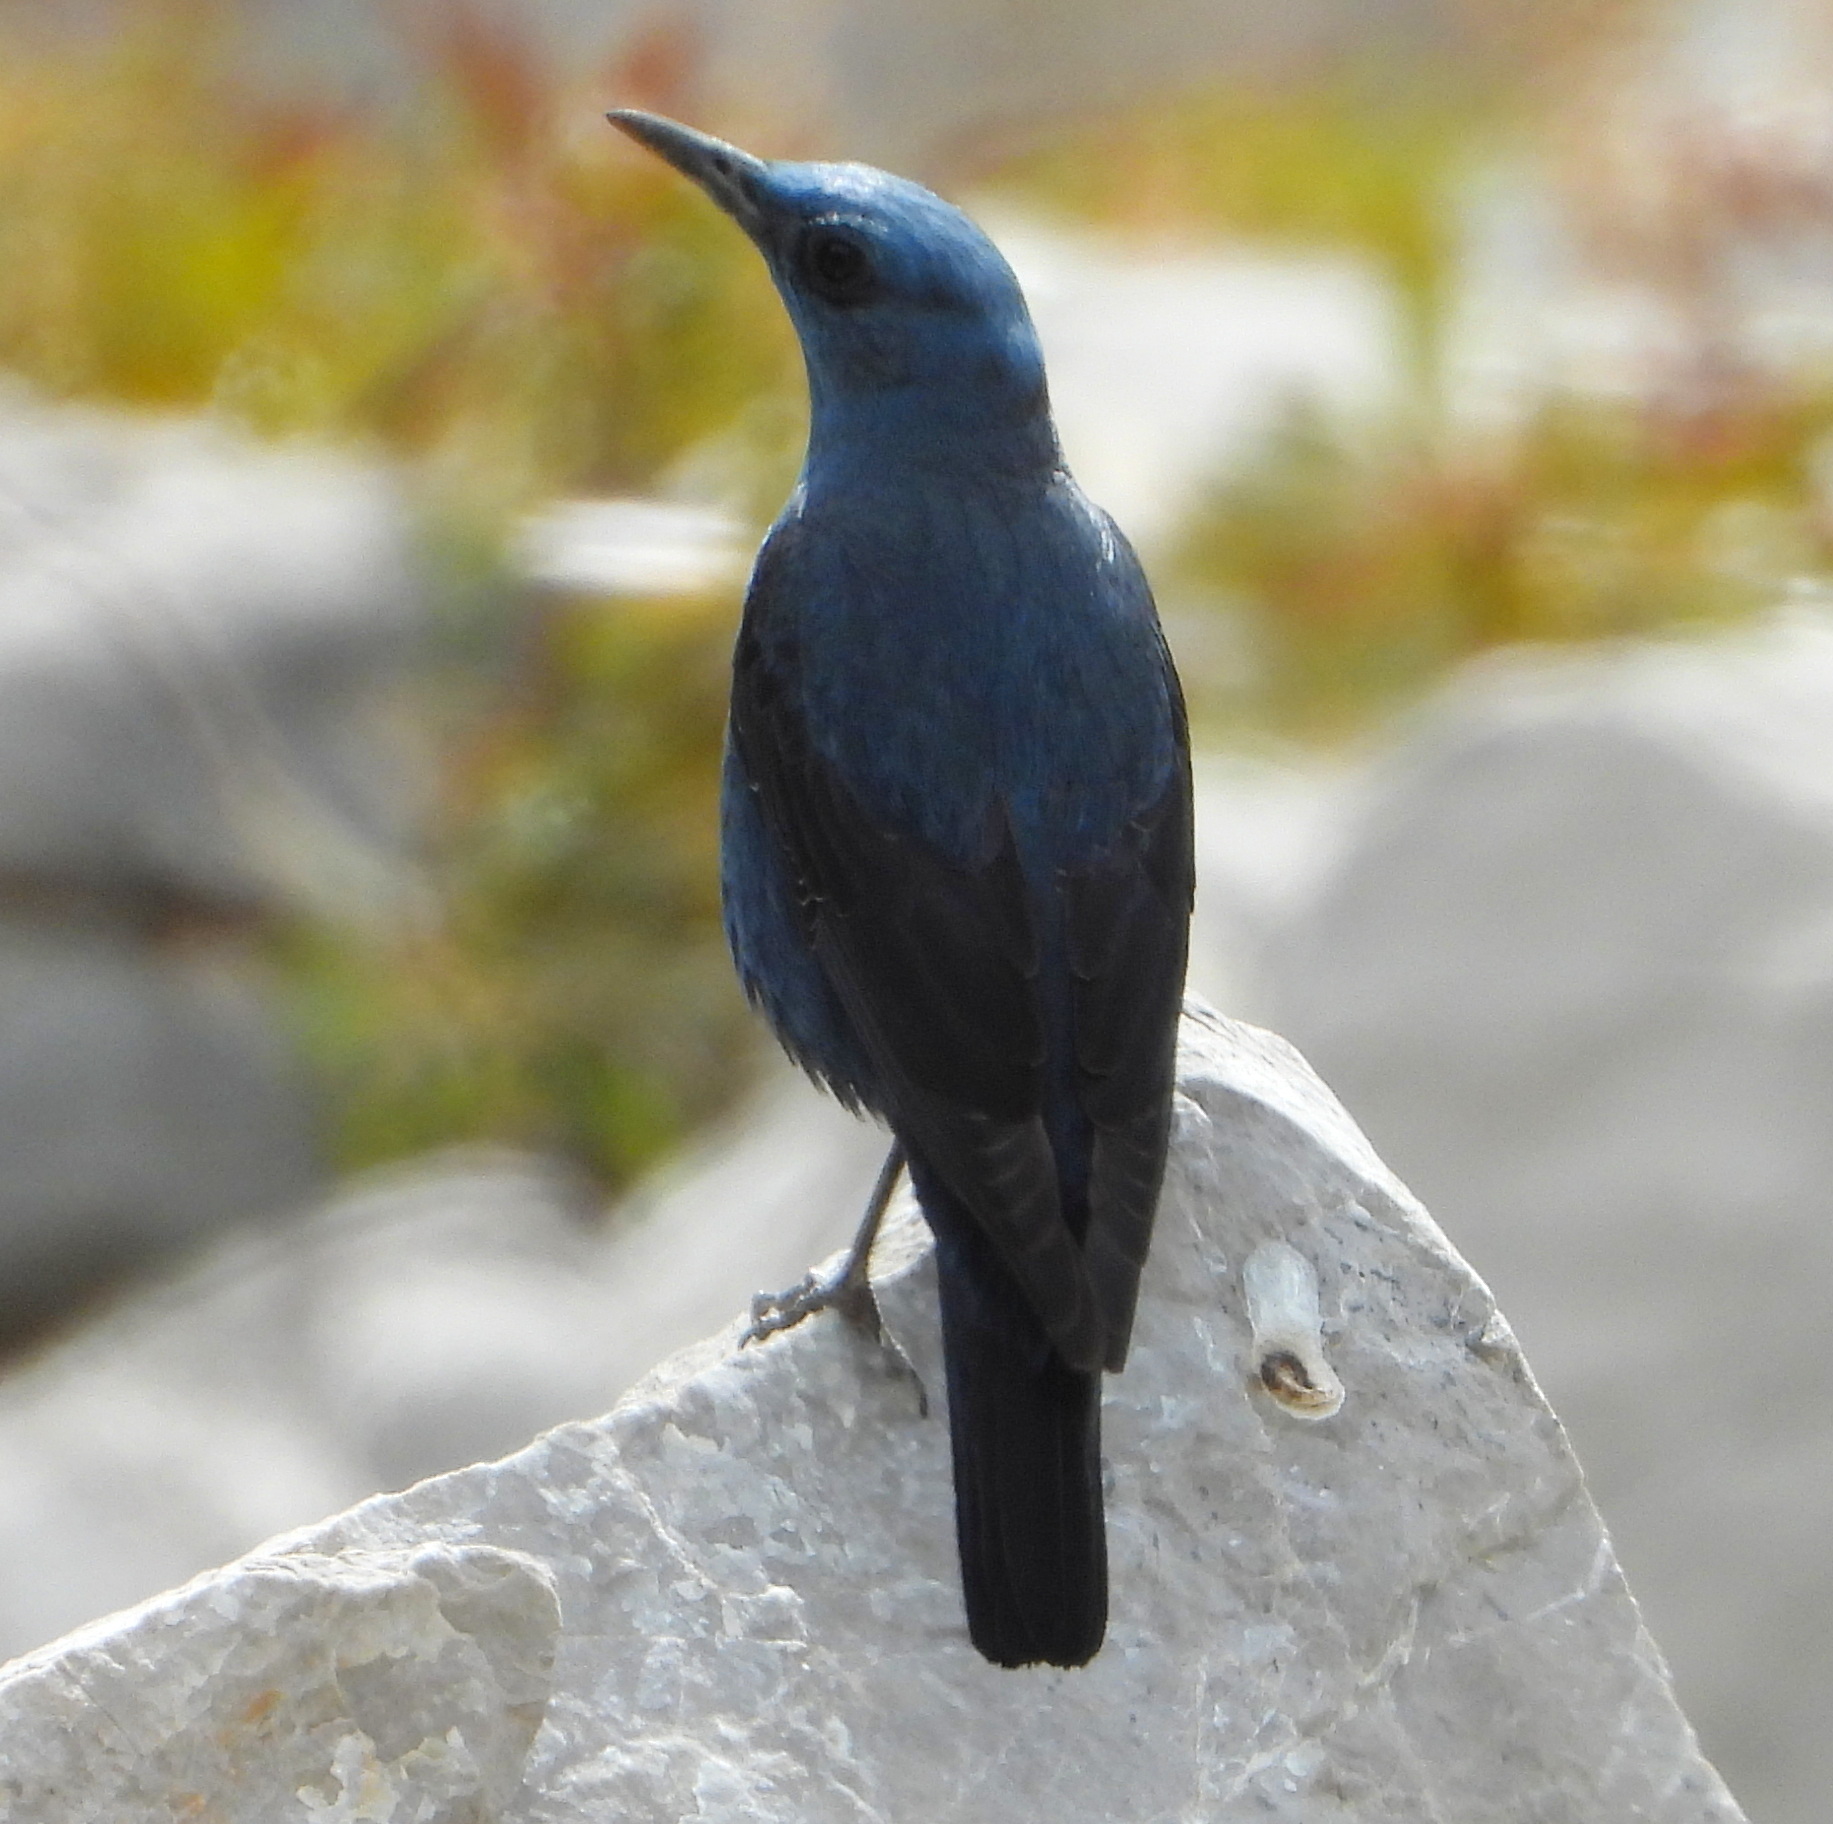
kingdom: Animalia
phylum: Chordata
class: Aves
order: Passeriformes
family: Muscicapidae
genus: Monticola
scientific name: Monticola solitarius
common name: Blue rock thrush
